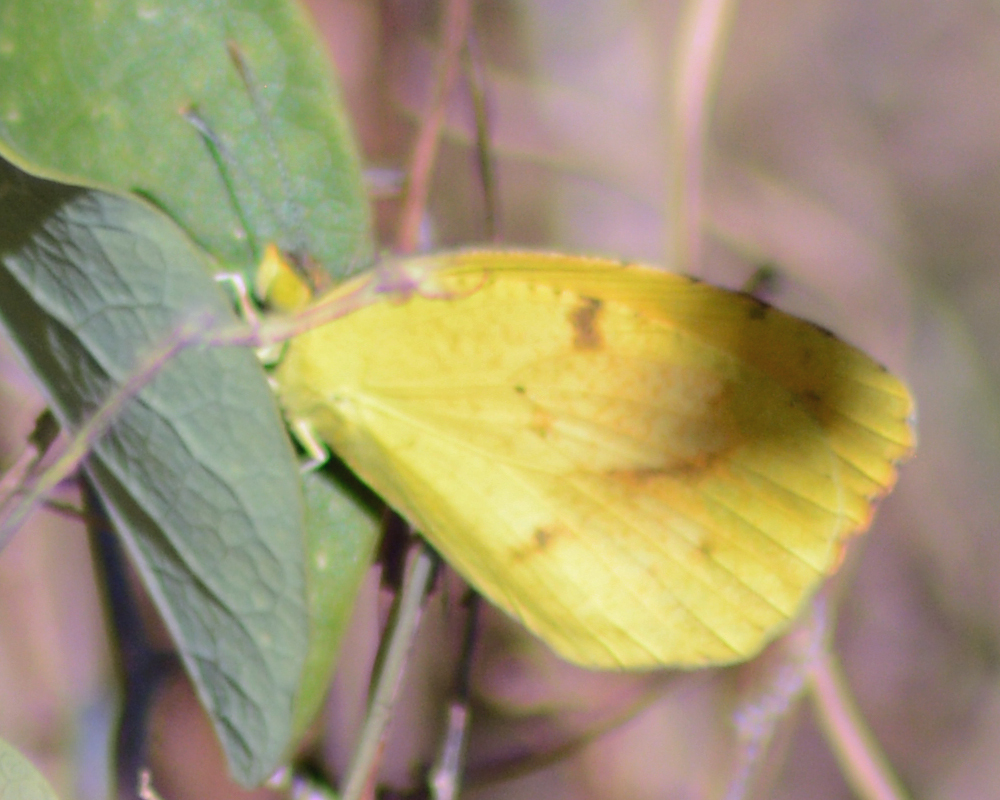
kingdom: Animalia
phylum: Arthropoda
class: Insecta
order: Lepidoptera
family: Pieridae
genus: Abaeis
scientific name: Abaeis nicippe
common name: Sleepy orange
